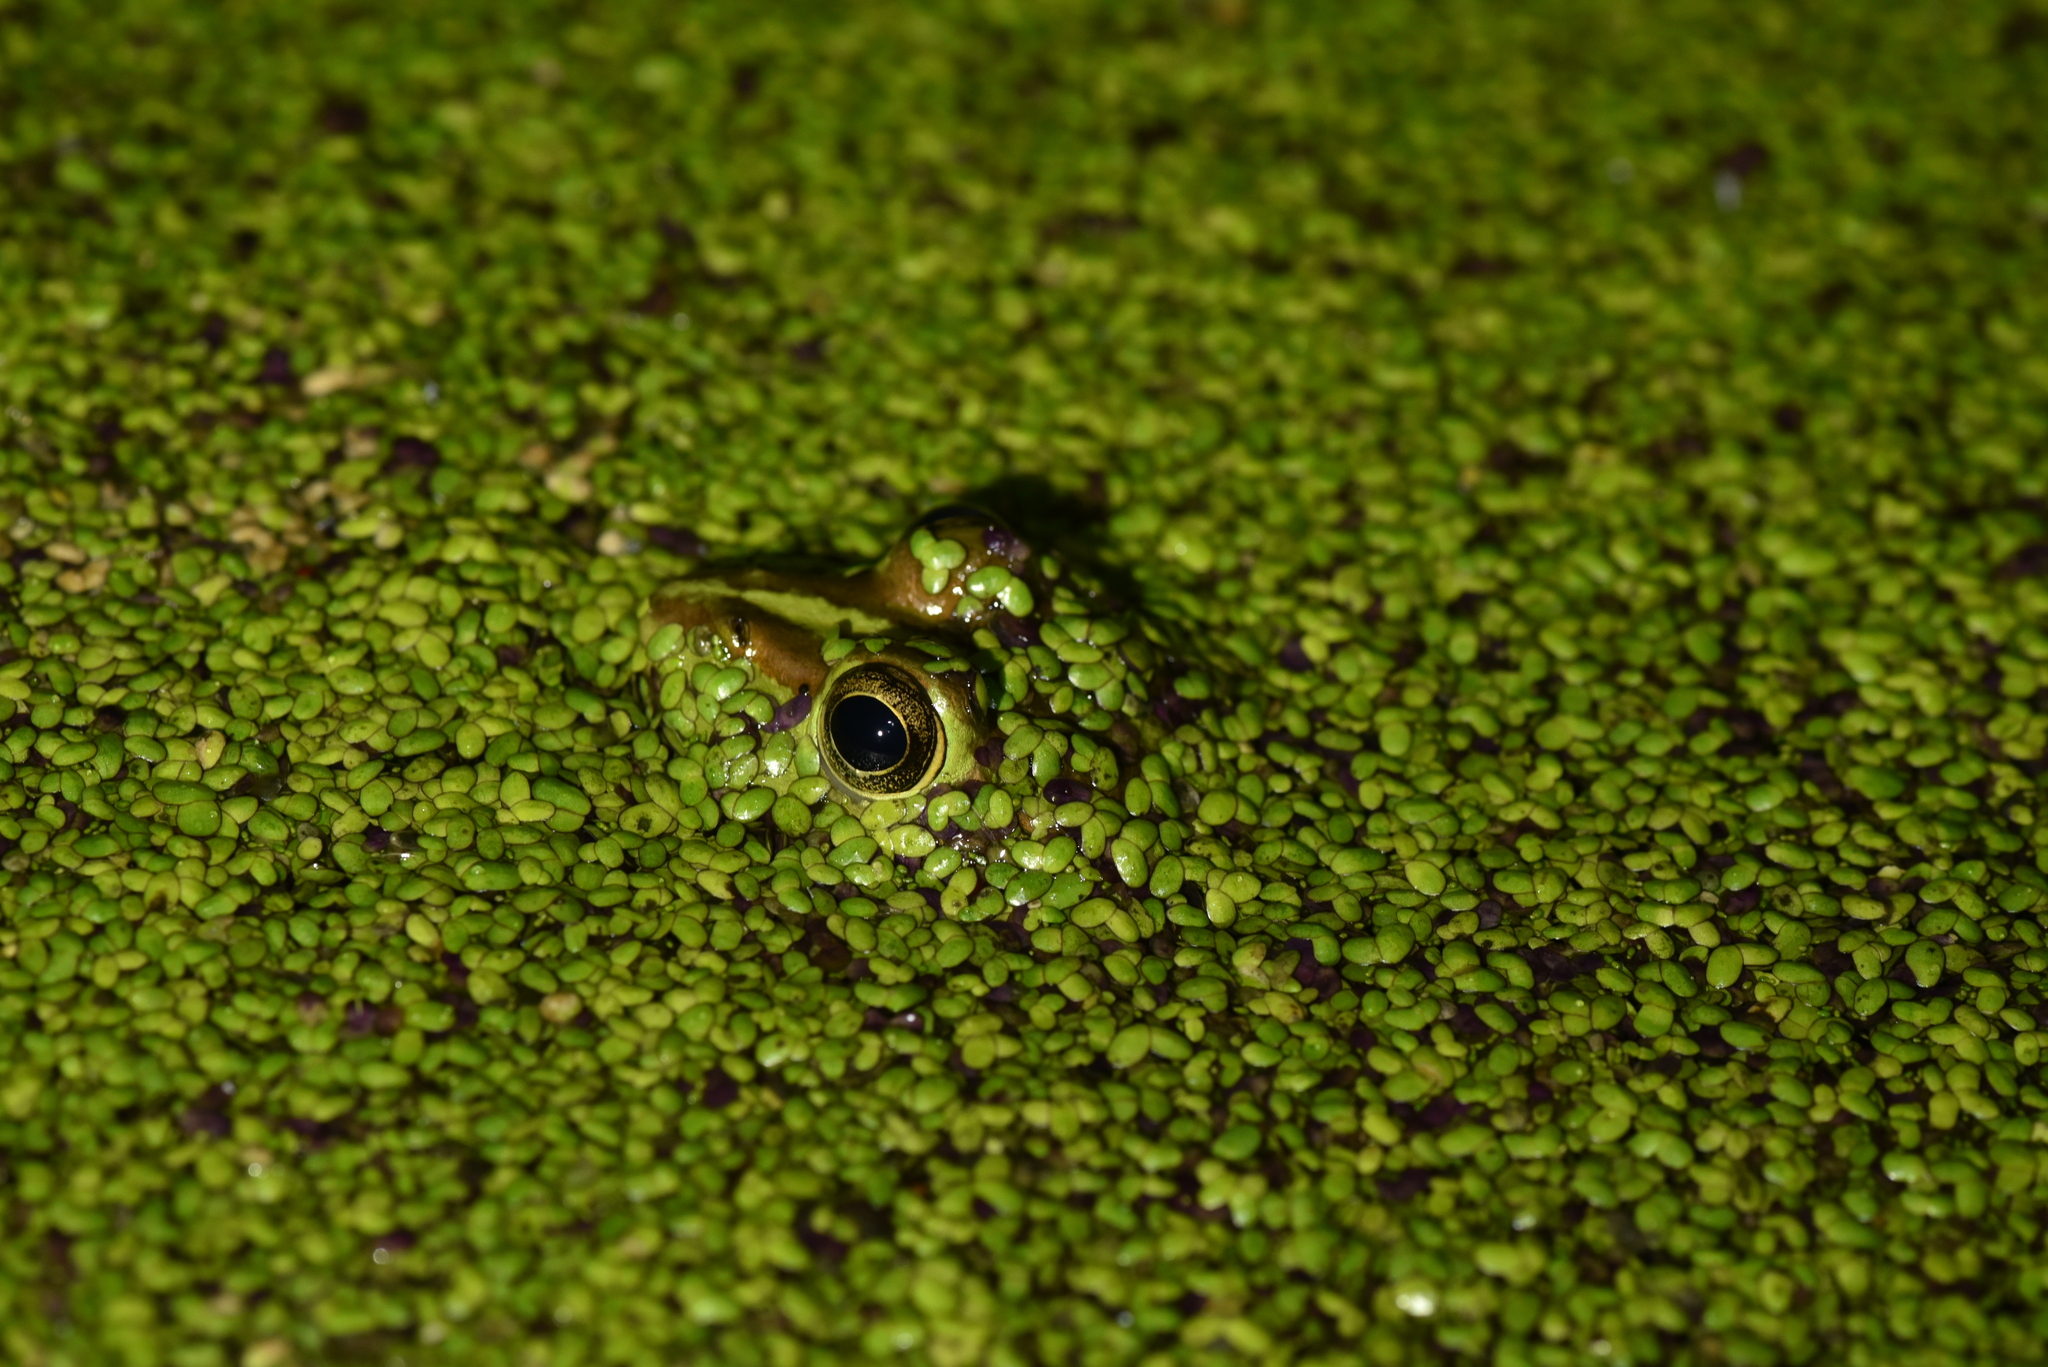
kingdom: Animalia
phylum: Chordata
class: Amphibia
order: Anura
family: Ranidae
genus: Pelophylax
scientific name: Pelophylax fukienensis
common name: Fukien gold-striped pond frog
